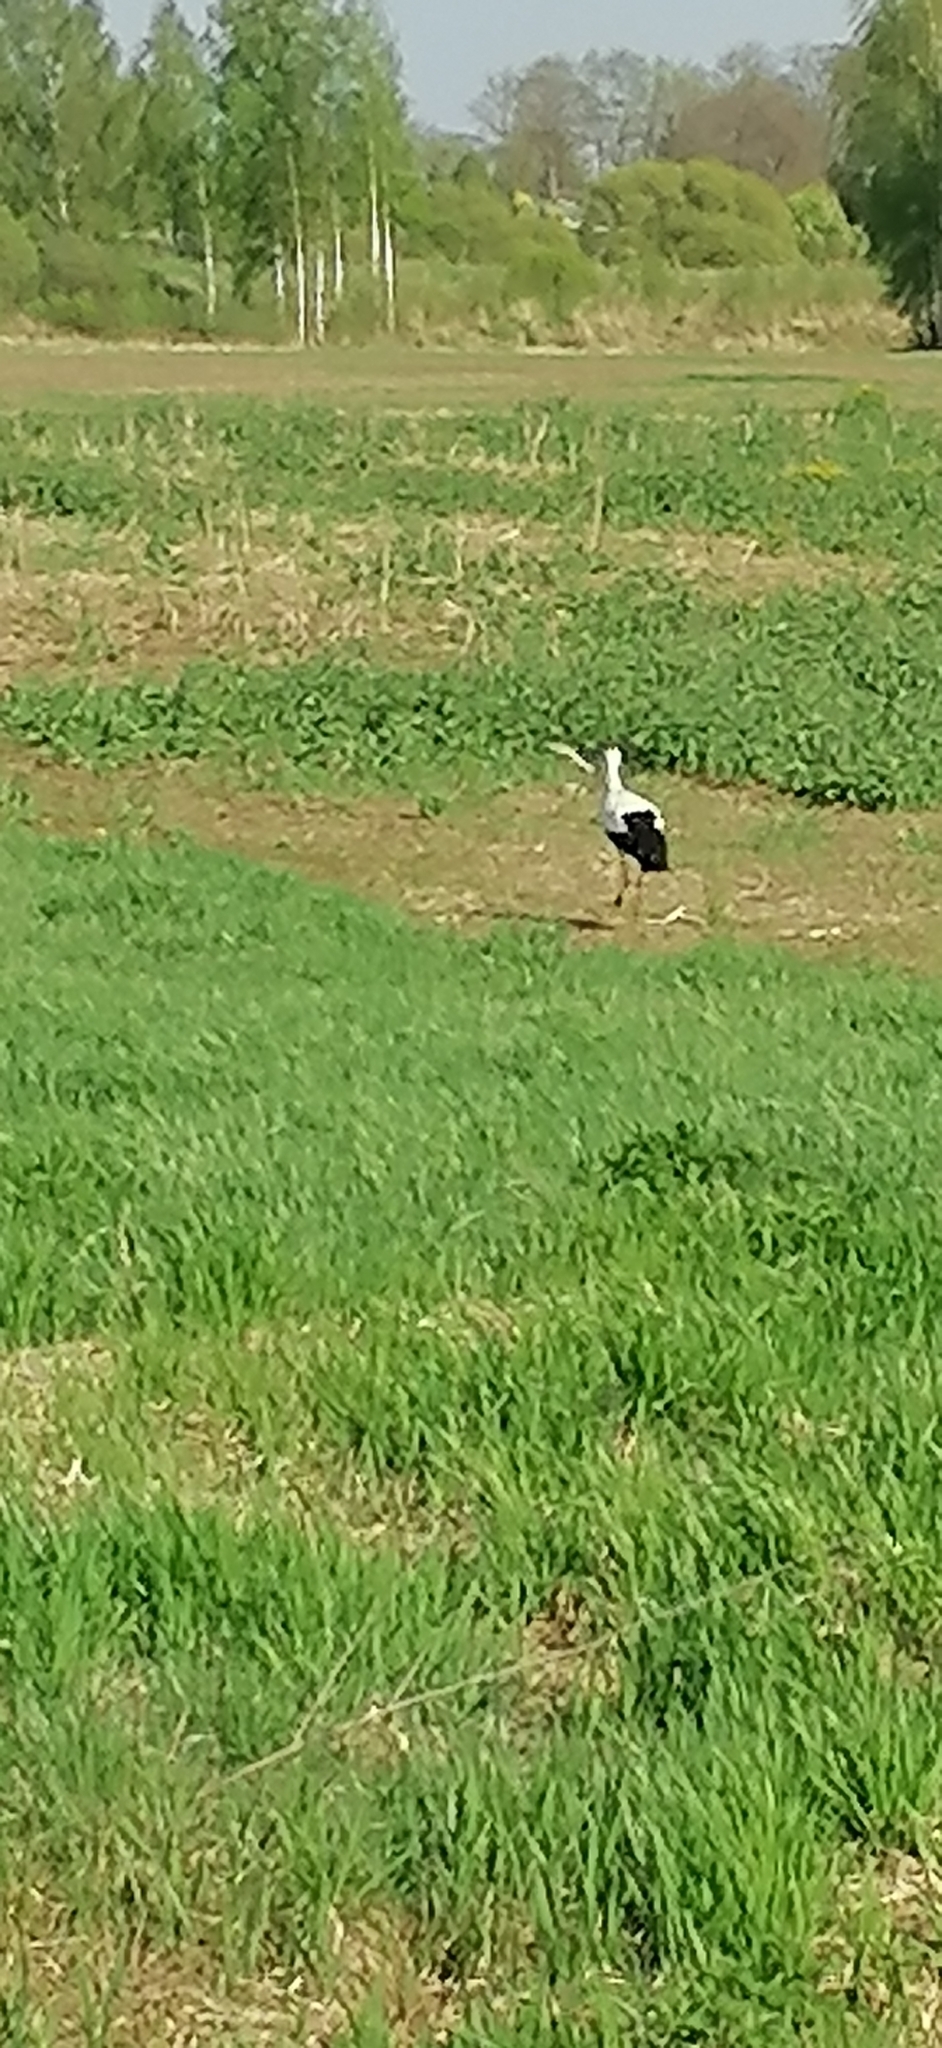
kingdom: Animalia
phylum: Chordata
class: Aves
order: Ciconiiformes
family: Ciconiidae
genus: Ciconia
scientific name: Ciconia ciconia
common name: White stork
